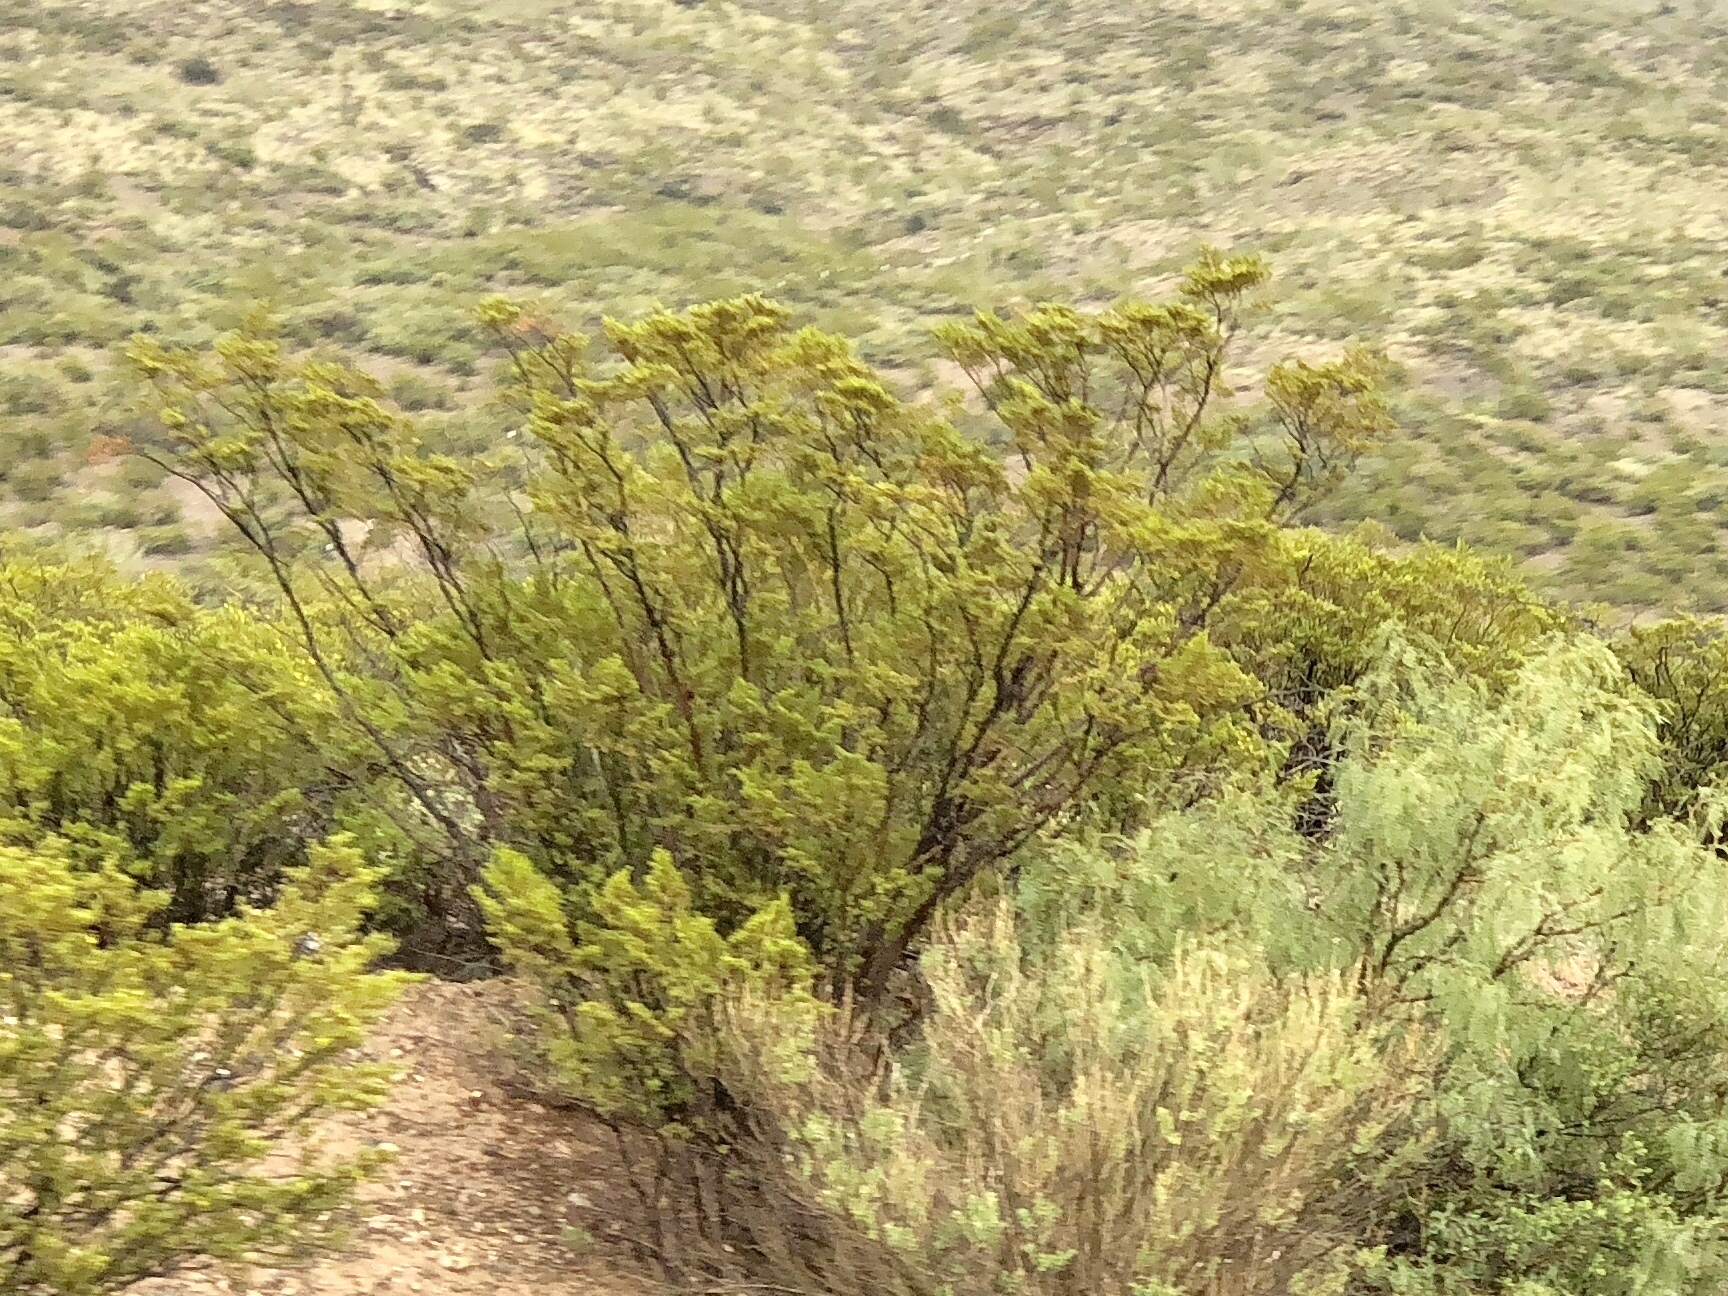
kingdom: Plantae
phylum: Tracheophyta
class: Magnoliopsida
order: Zygophyllales
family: Zygophyllaceae
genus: Larrea
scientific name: Larrea tridentata
